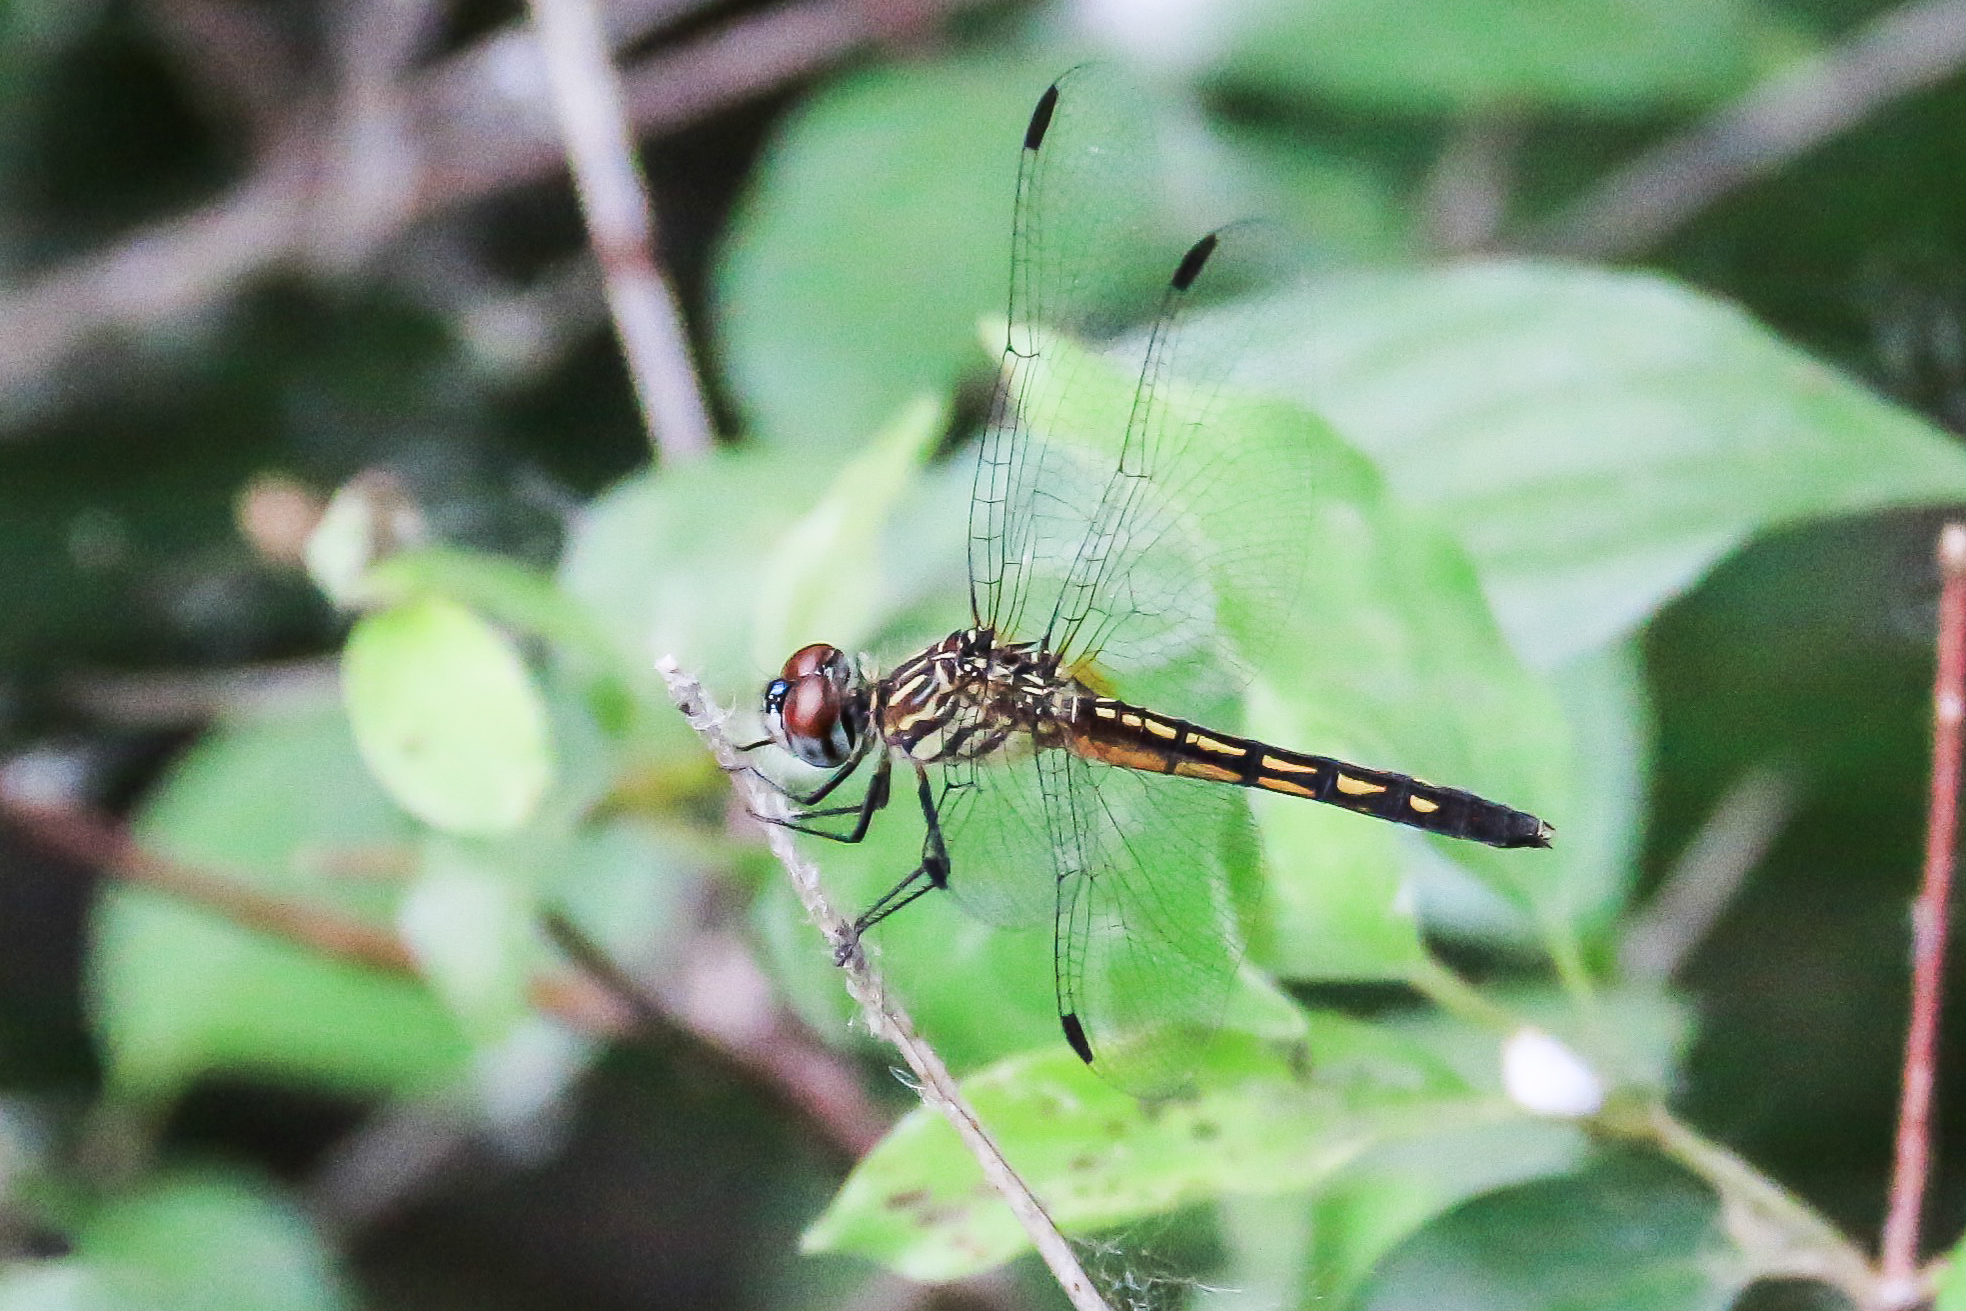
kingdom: Animalia
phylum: Arthropoda
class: Insecta
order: Odonata
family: Libellulidae
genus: Pachydiplax
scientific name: Pachydiplax longipennis
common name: Blue dasher
